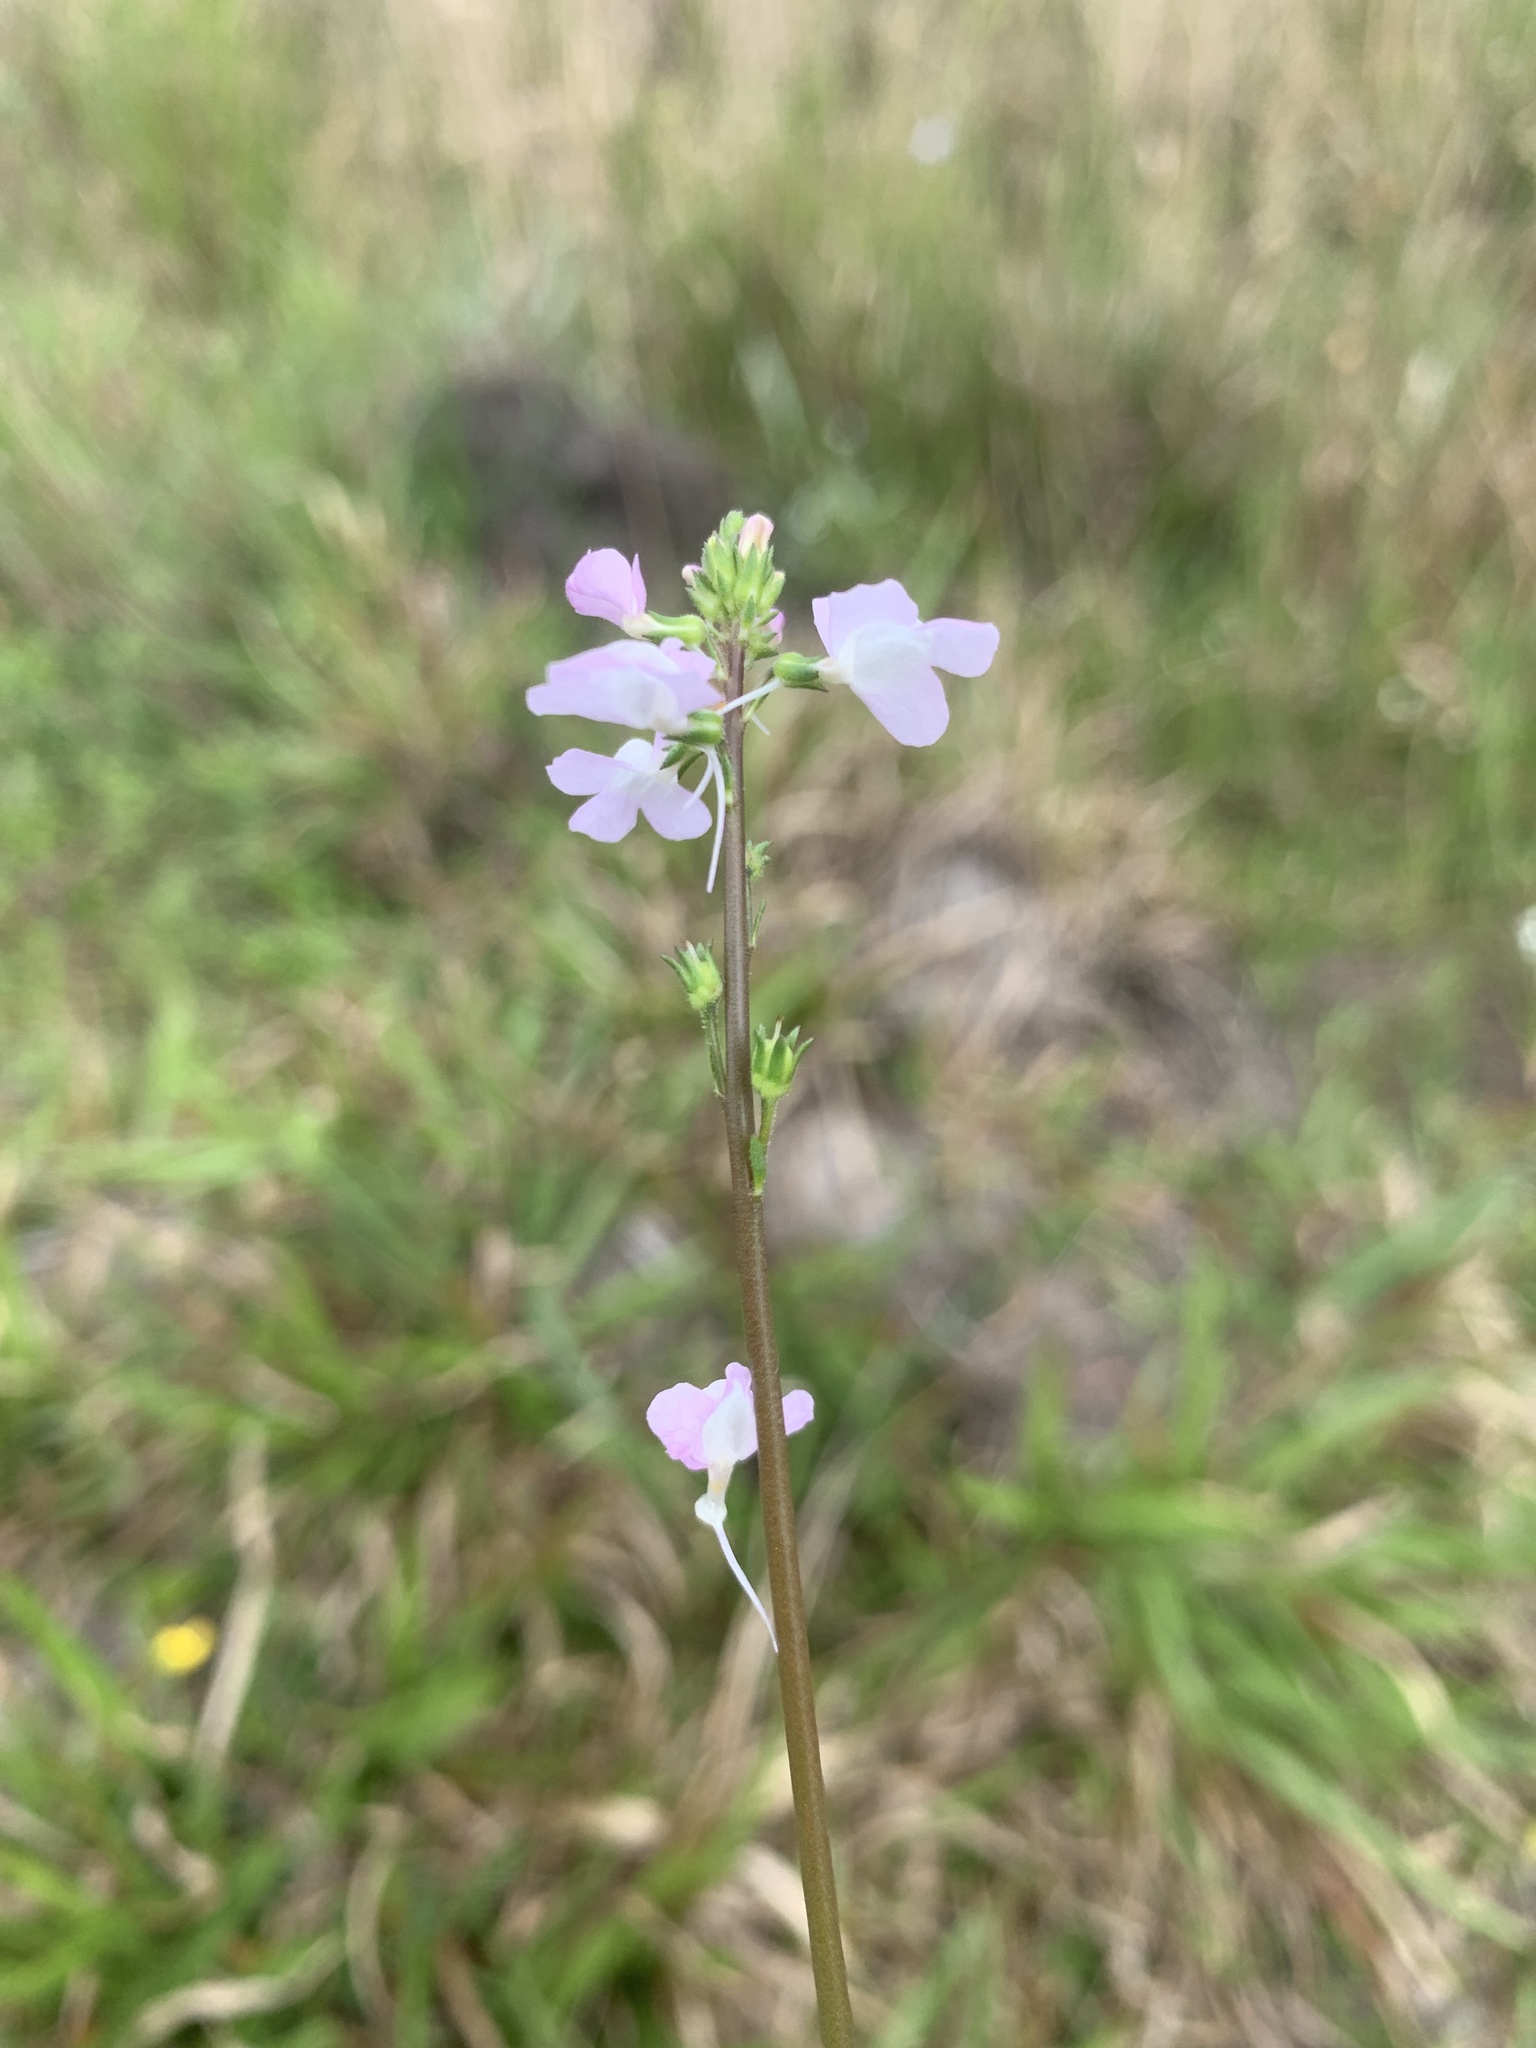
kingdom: Plantae
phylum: Tracheophyta
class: Magnoliopsida
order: Lamiales
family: Plantaginaceae
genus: Nuttallanthus
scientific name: Nuttallanthus canadensis
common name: Blue toadflax
